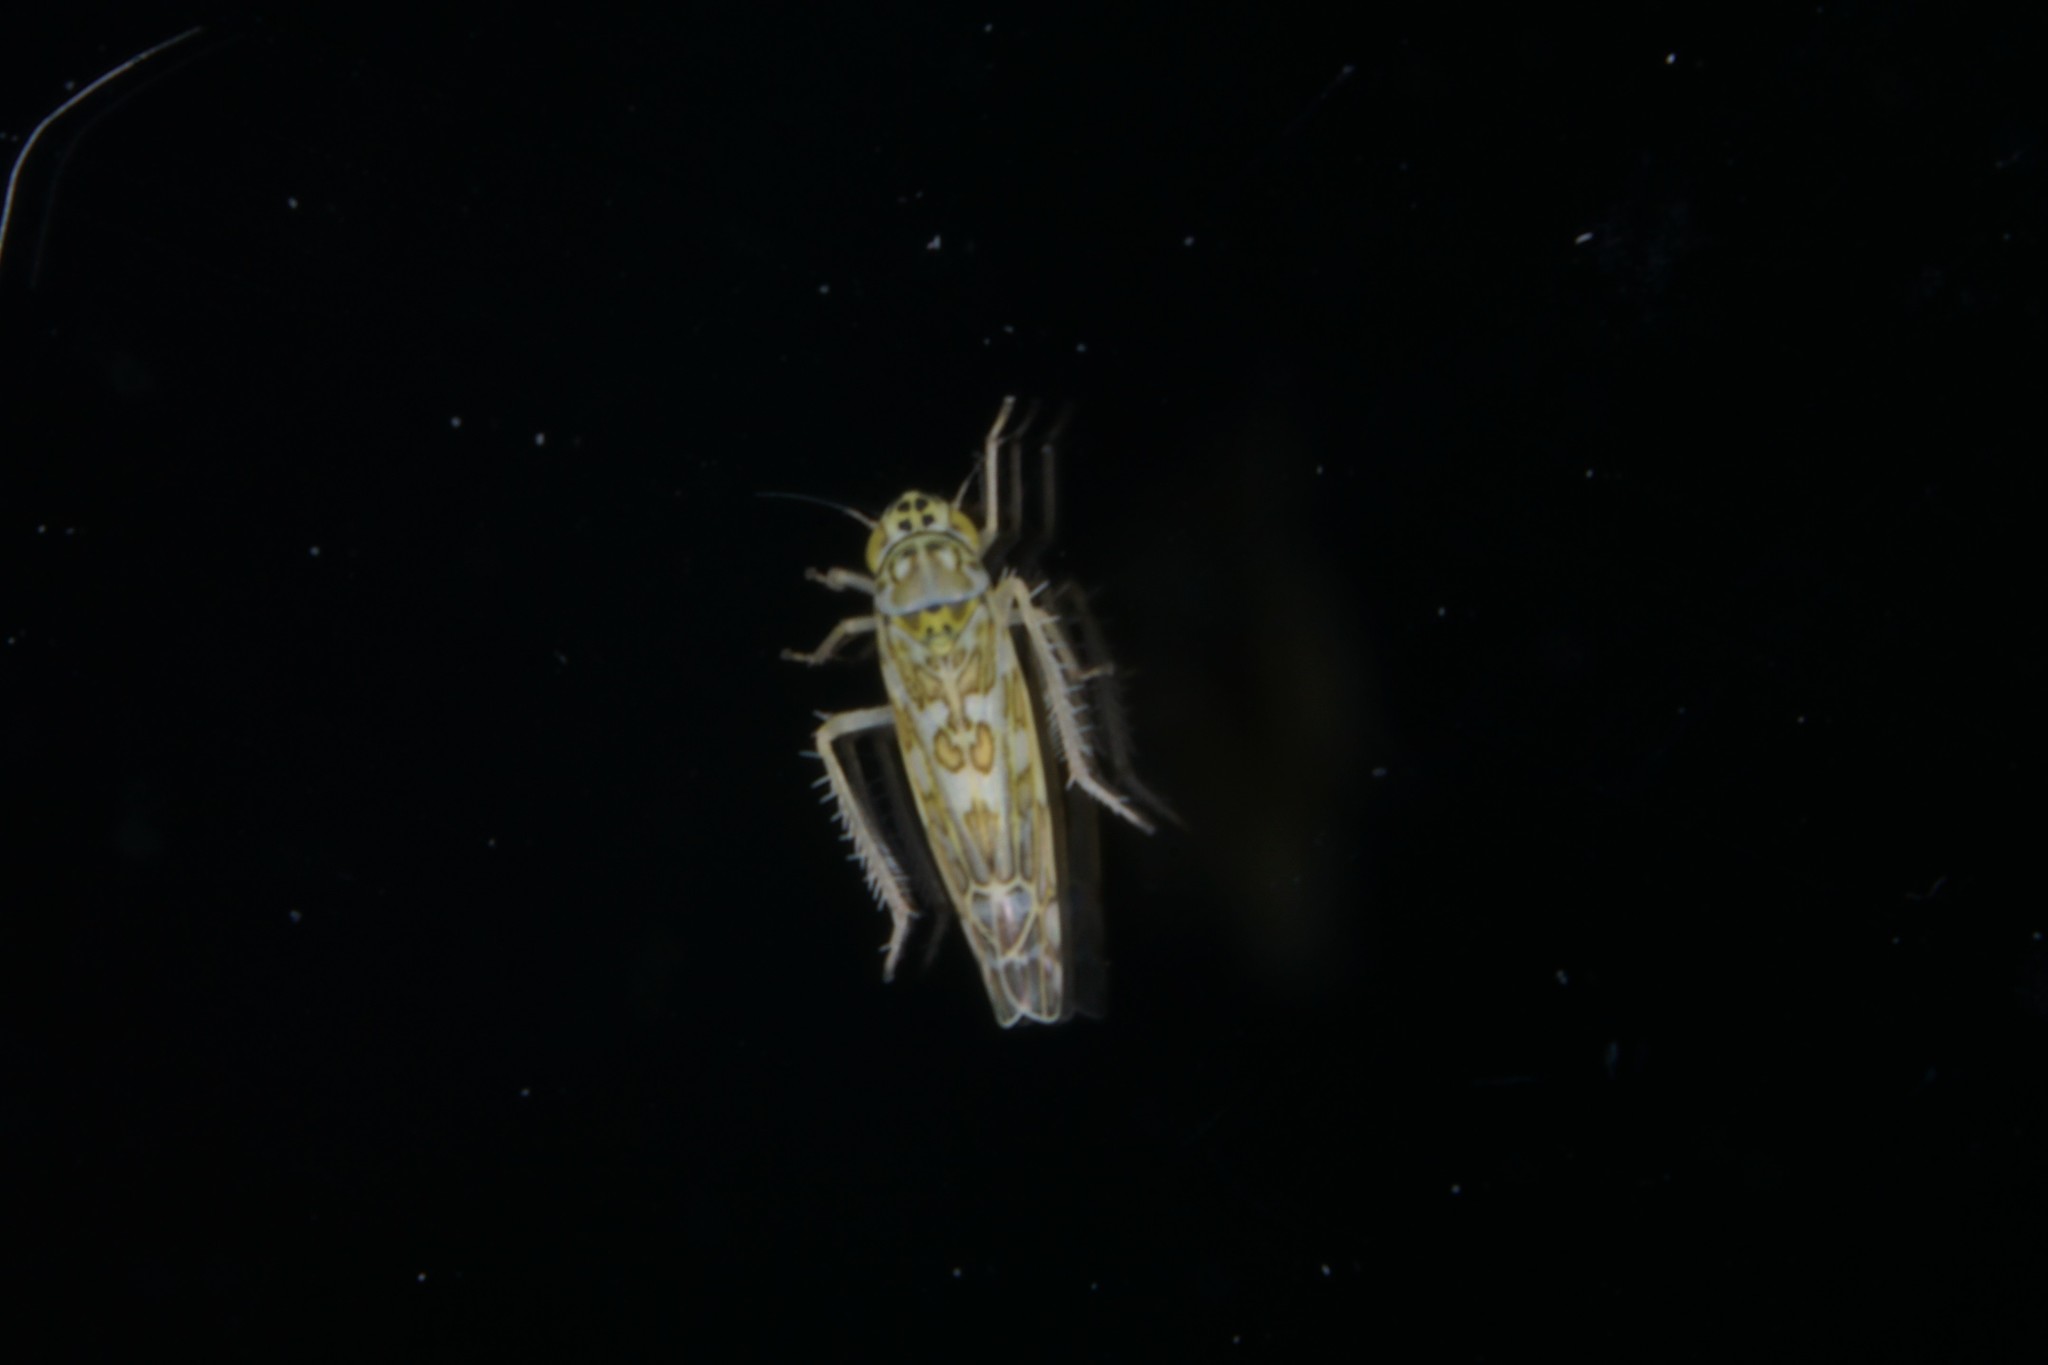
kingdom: Animalia
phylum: Arthropoda
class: Insecta
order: Hemiptera
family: Cicadellidae
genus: Eupteryx
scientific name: Eupteryx decemnotata
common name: Ligurian leafhopper
